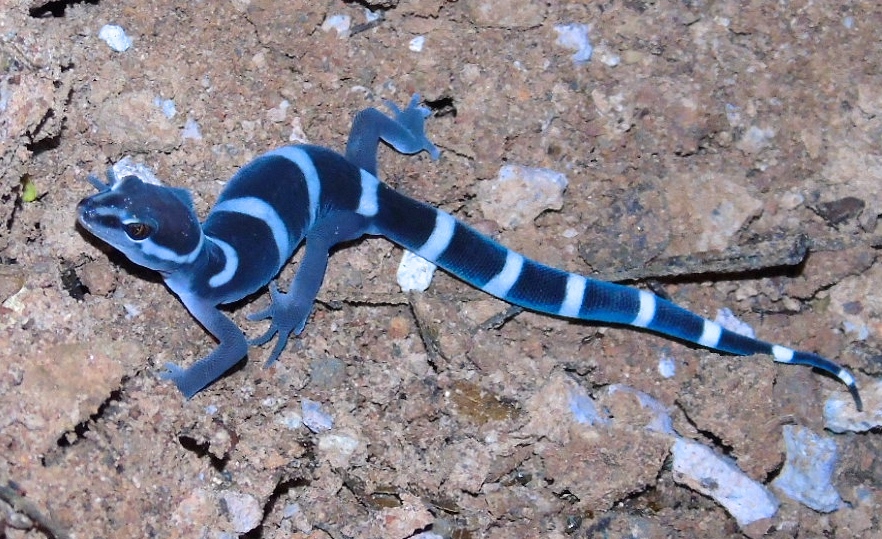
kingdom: Animalia
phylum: Chordata
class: Squamata
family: Eublepharidae
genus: Coleonyx
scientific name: Coleonyx fasciatus
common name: Black banded gecko
